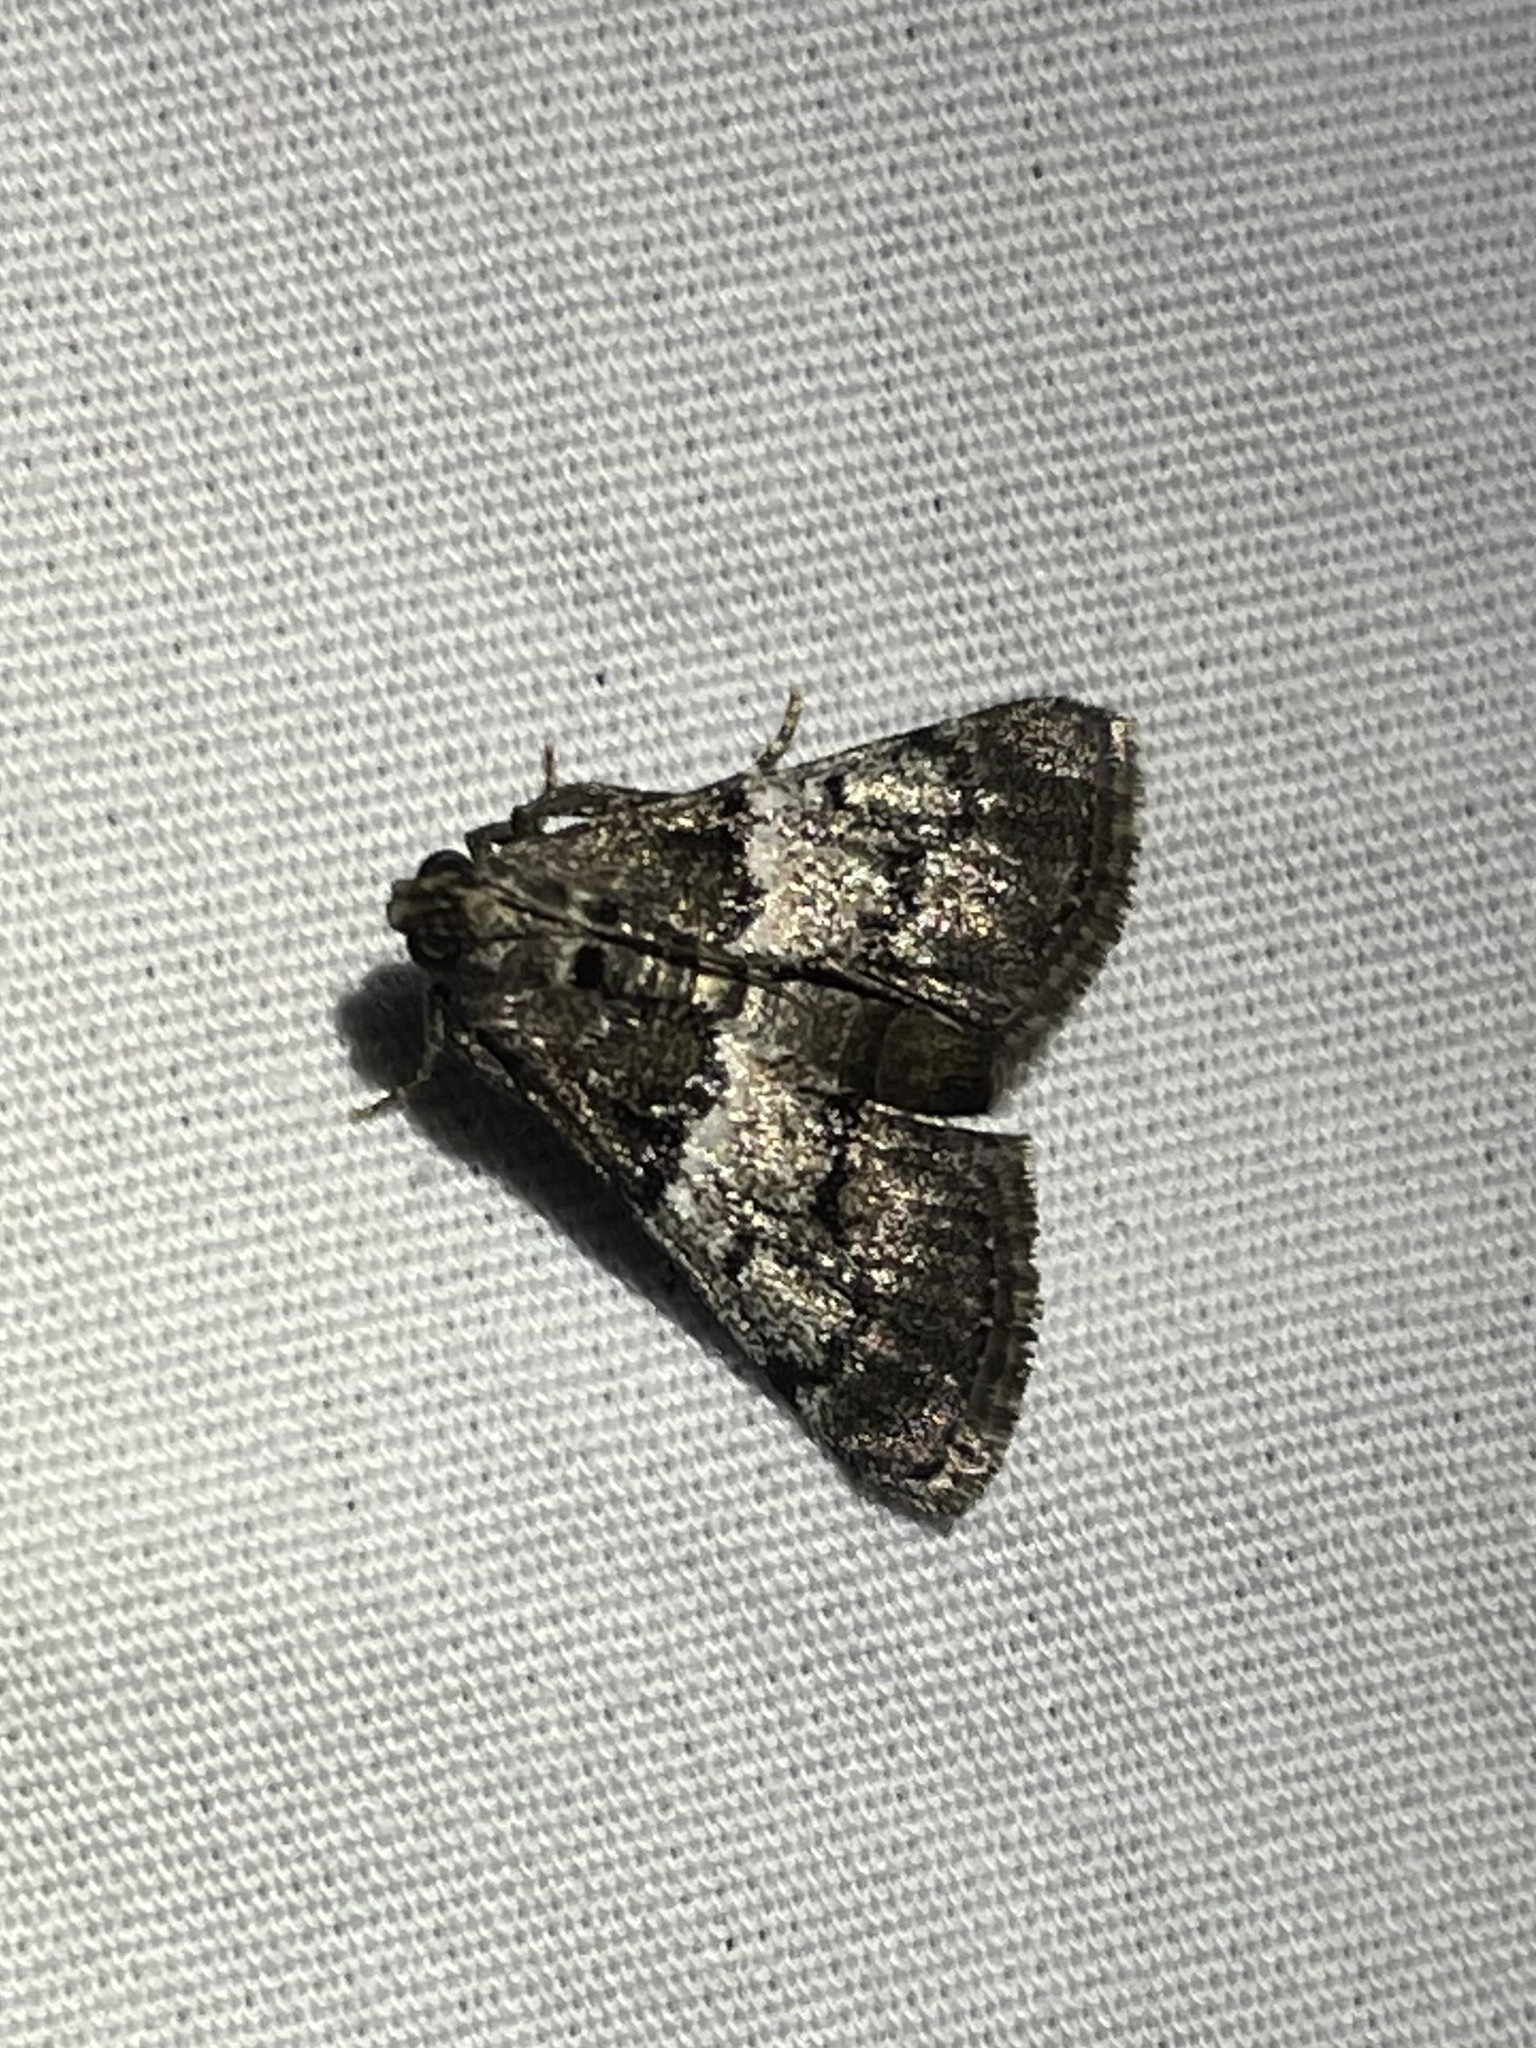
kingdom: Animalia
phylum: Arthropoda
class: Insecta
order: Lepidoptera
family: Pyralidae
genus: Macalla
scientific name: Macalla zelleri
